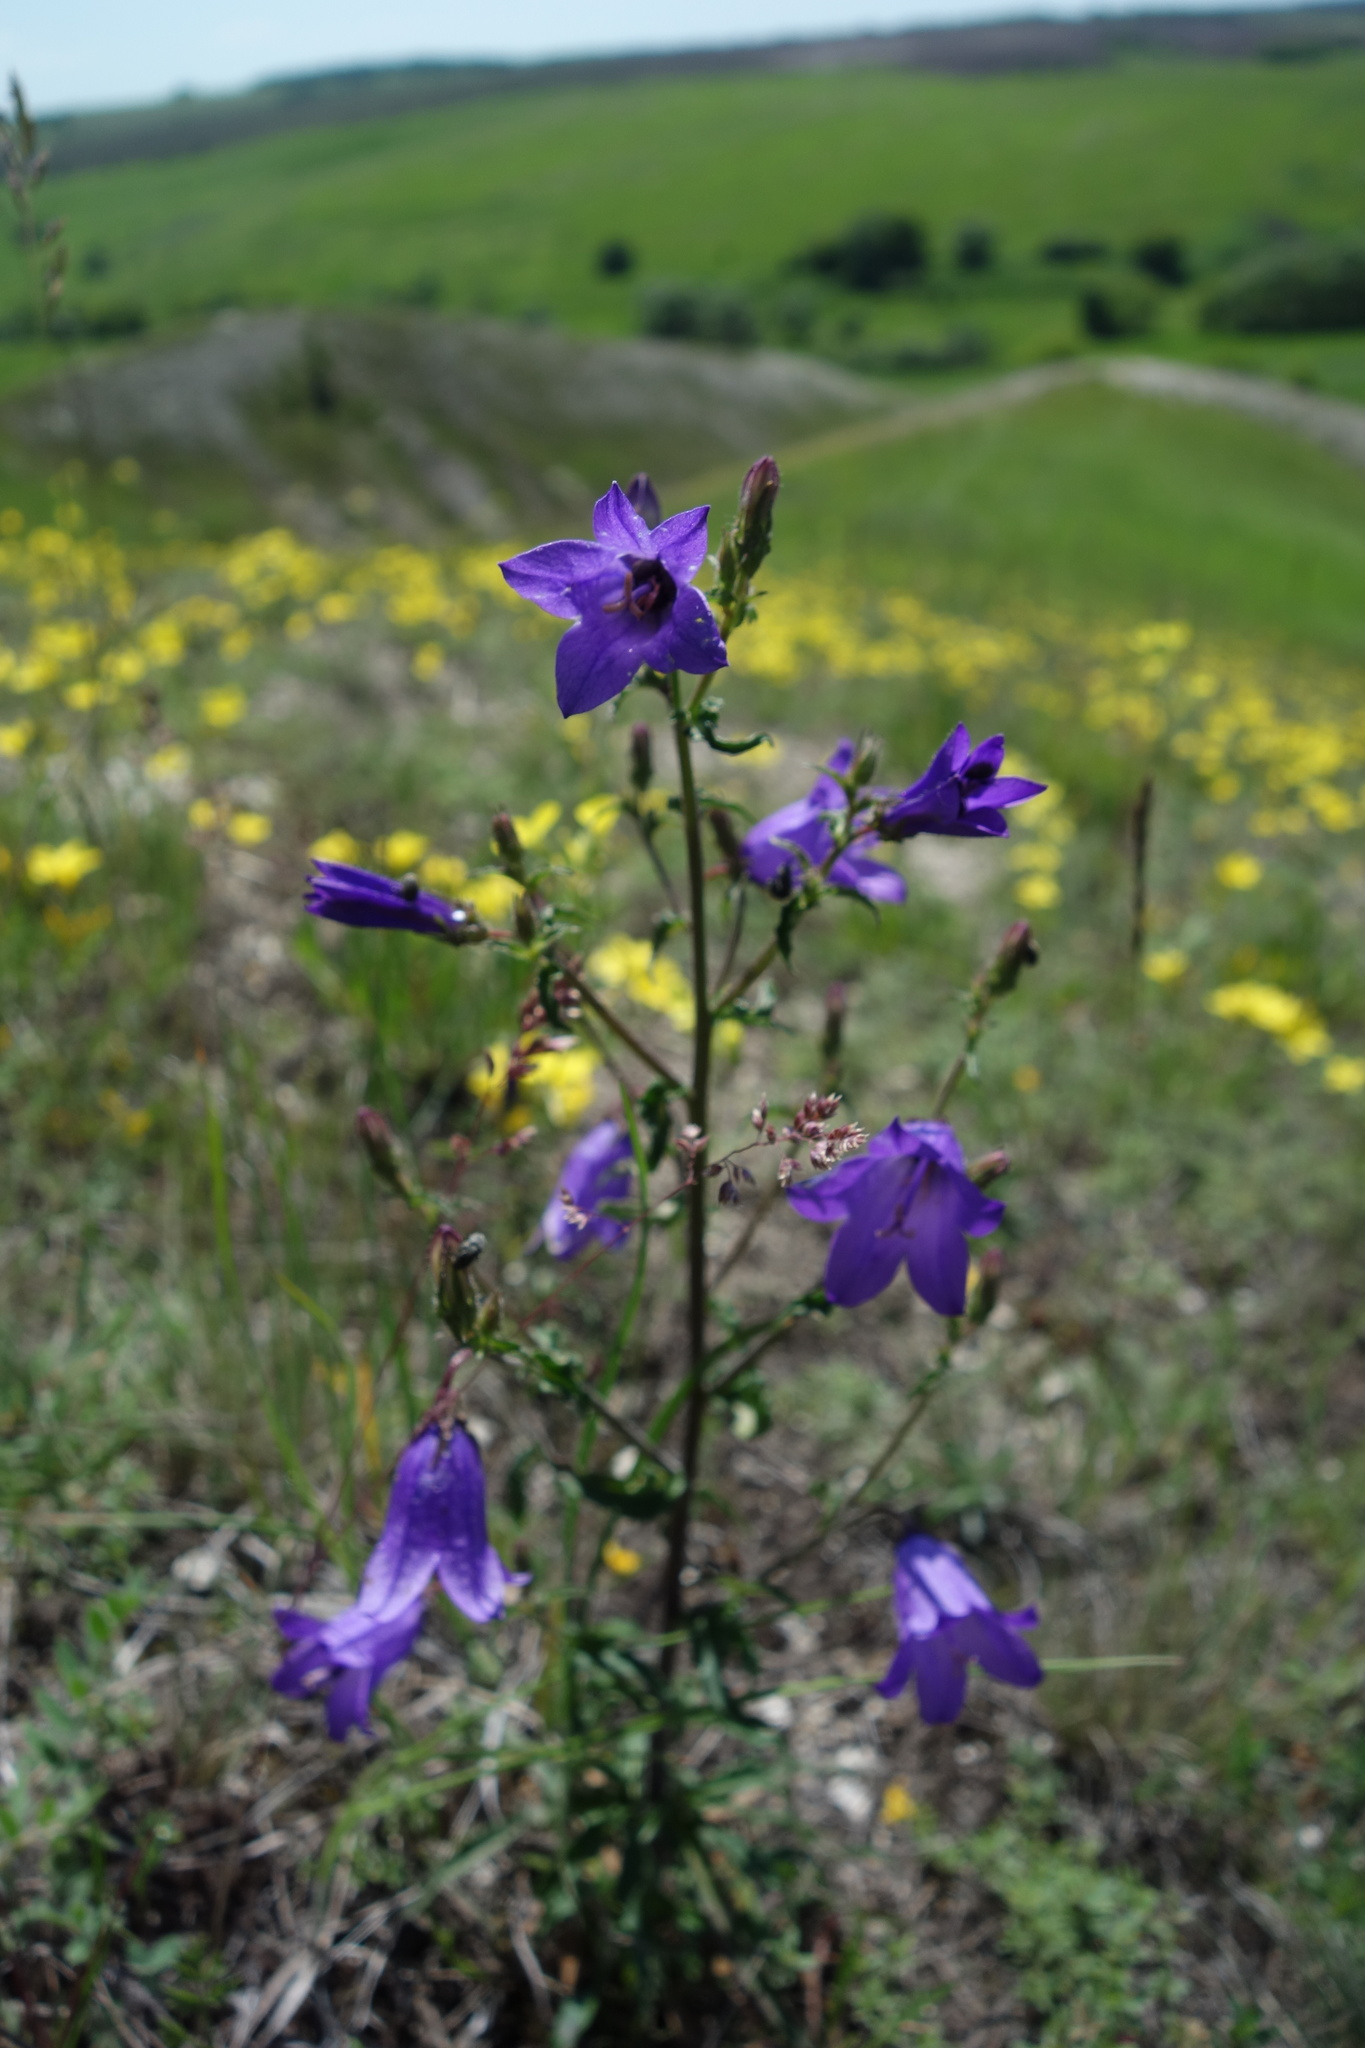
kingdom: Plantae
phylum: Tracheophyta
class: Magnoliopsida
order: Asterales
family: Campanulaceae
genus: Campanula
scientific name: Campanula sibirica
